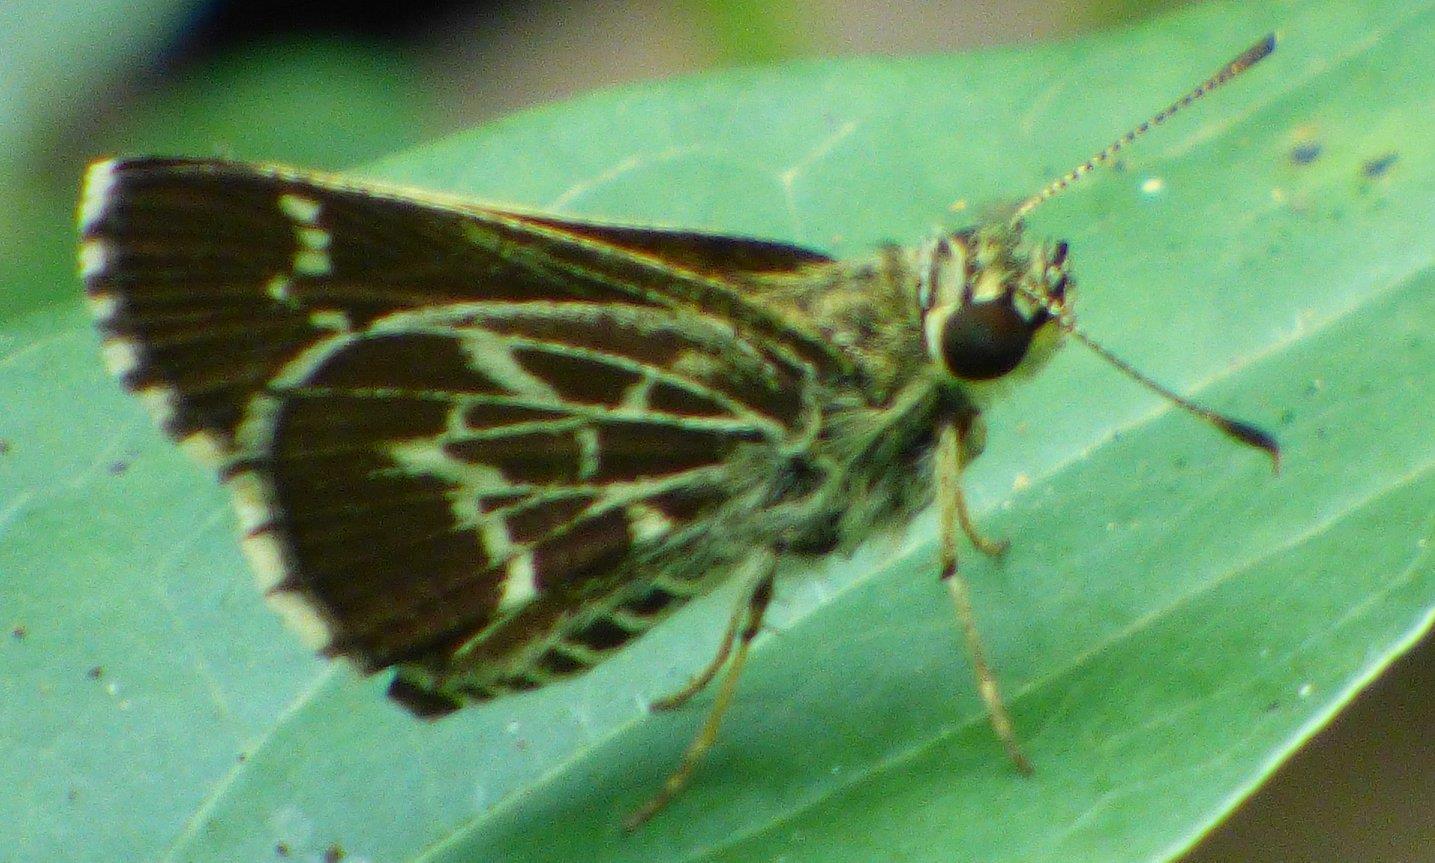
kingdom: Animalia
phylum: Arthropoda
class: Insecta
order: Lepidoptera
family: Hesperiidae
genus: Mastor
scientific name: Mastor aesculapius
